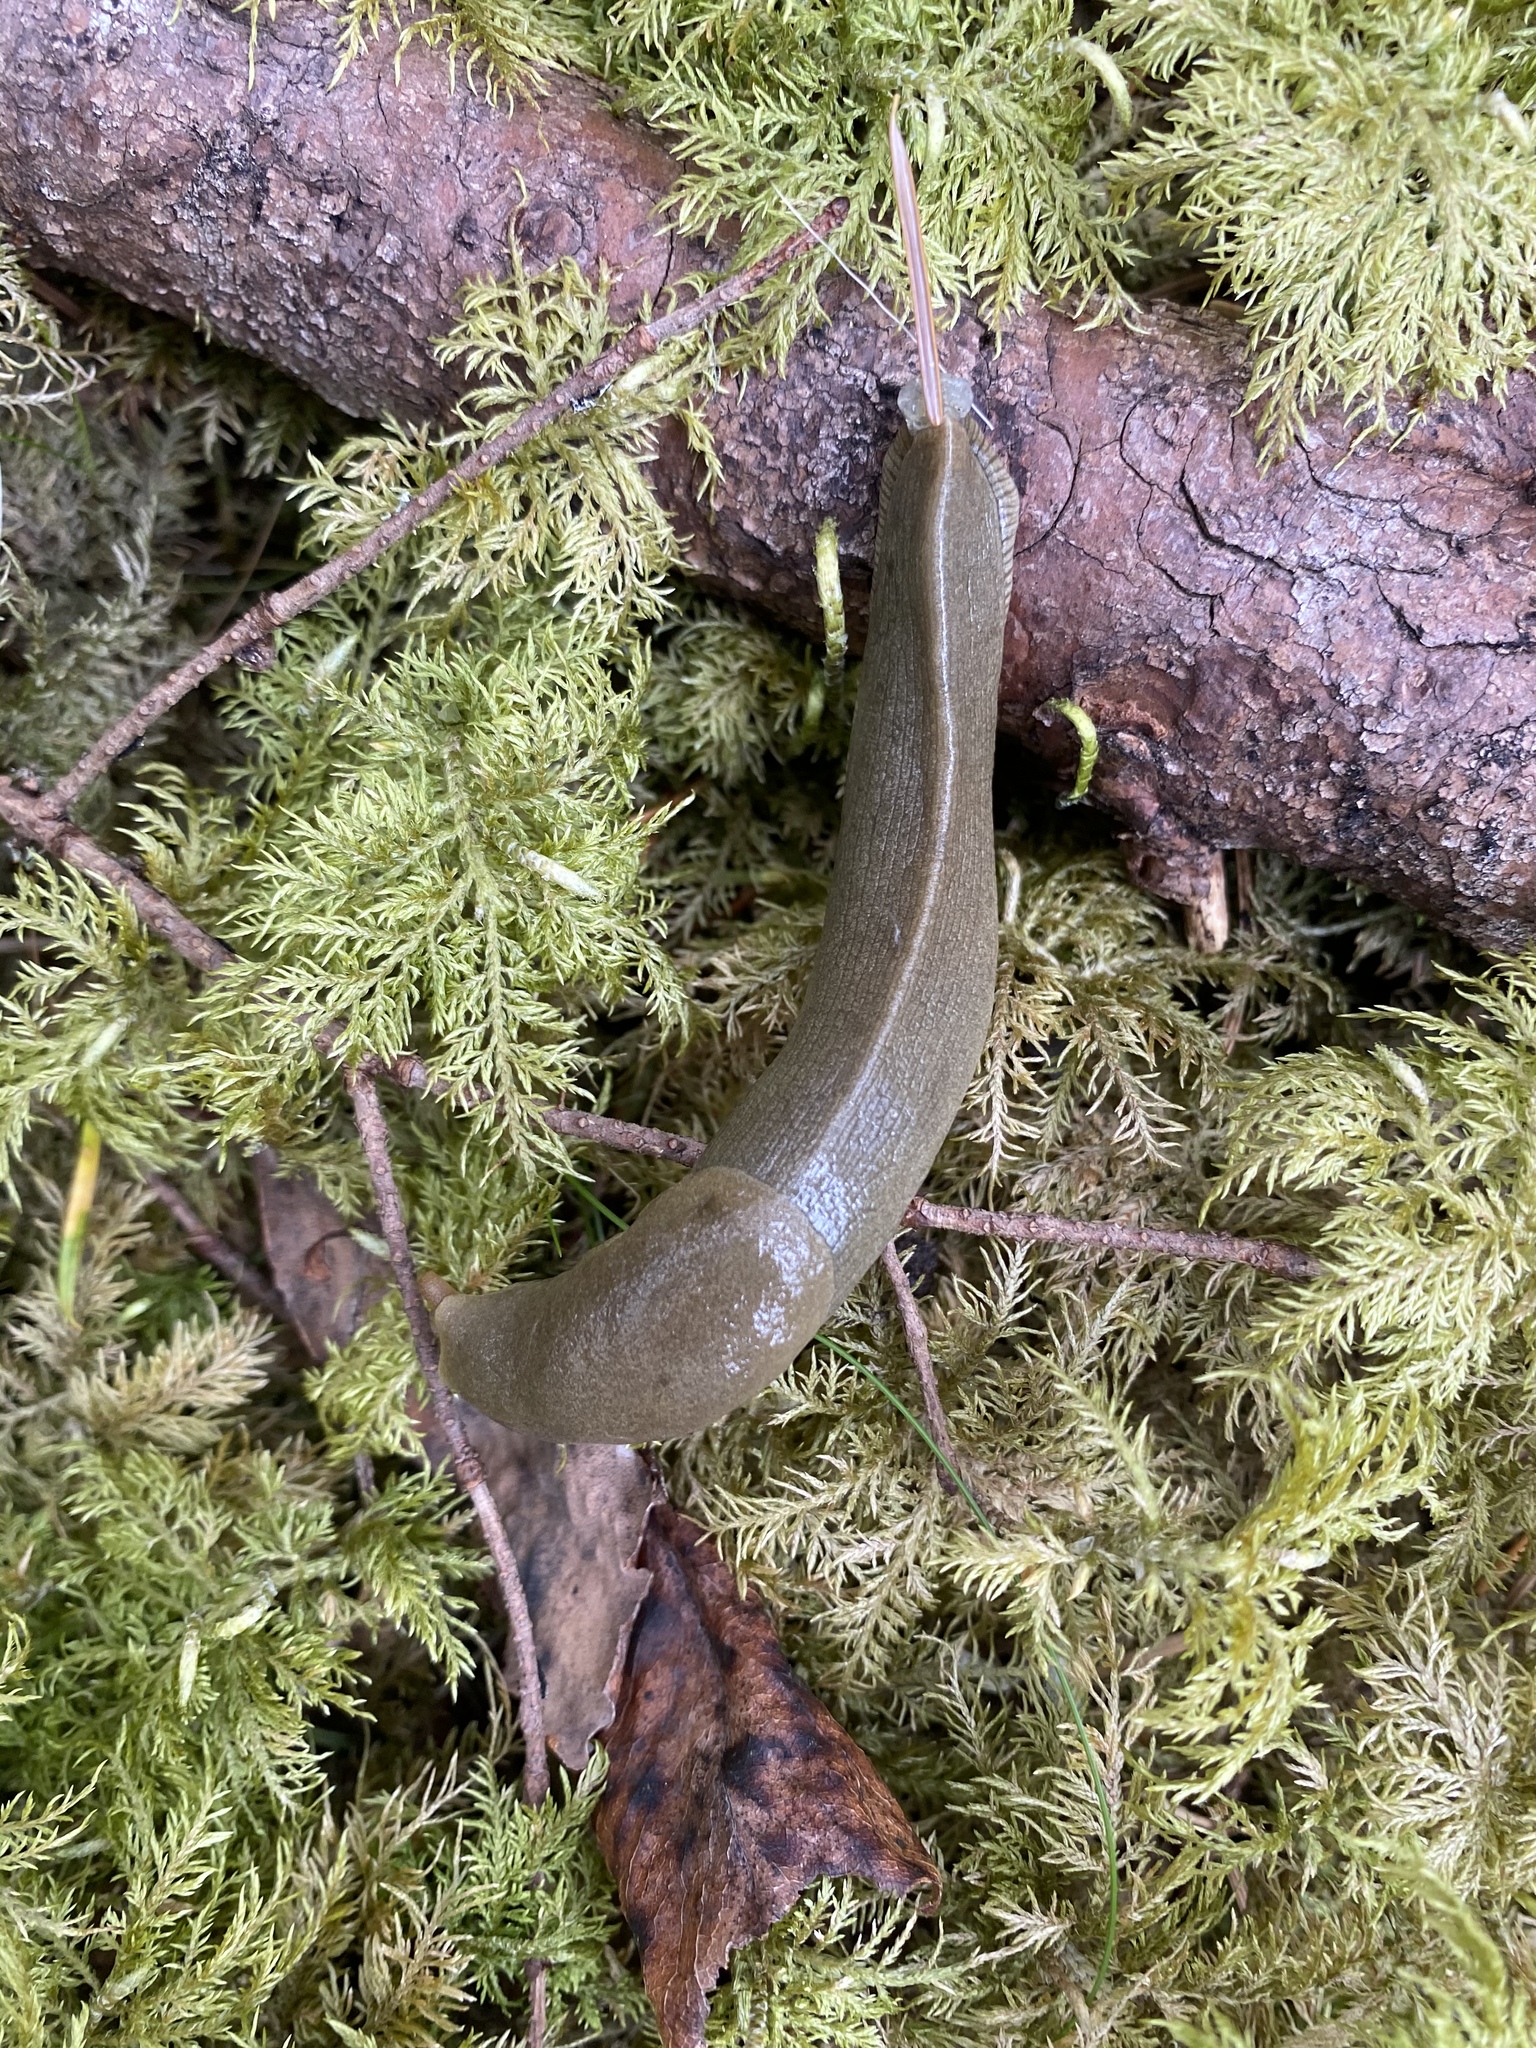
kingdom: Animalia
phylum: Mollusca
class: Gastropoda
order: Stylommatophora
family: Ariolimacidae
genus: Ariolimax
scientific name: Ariolimax columbianus
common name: Pacific banana slug
